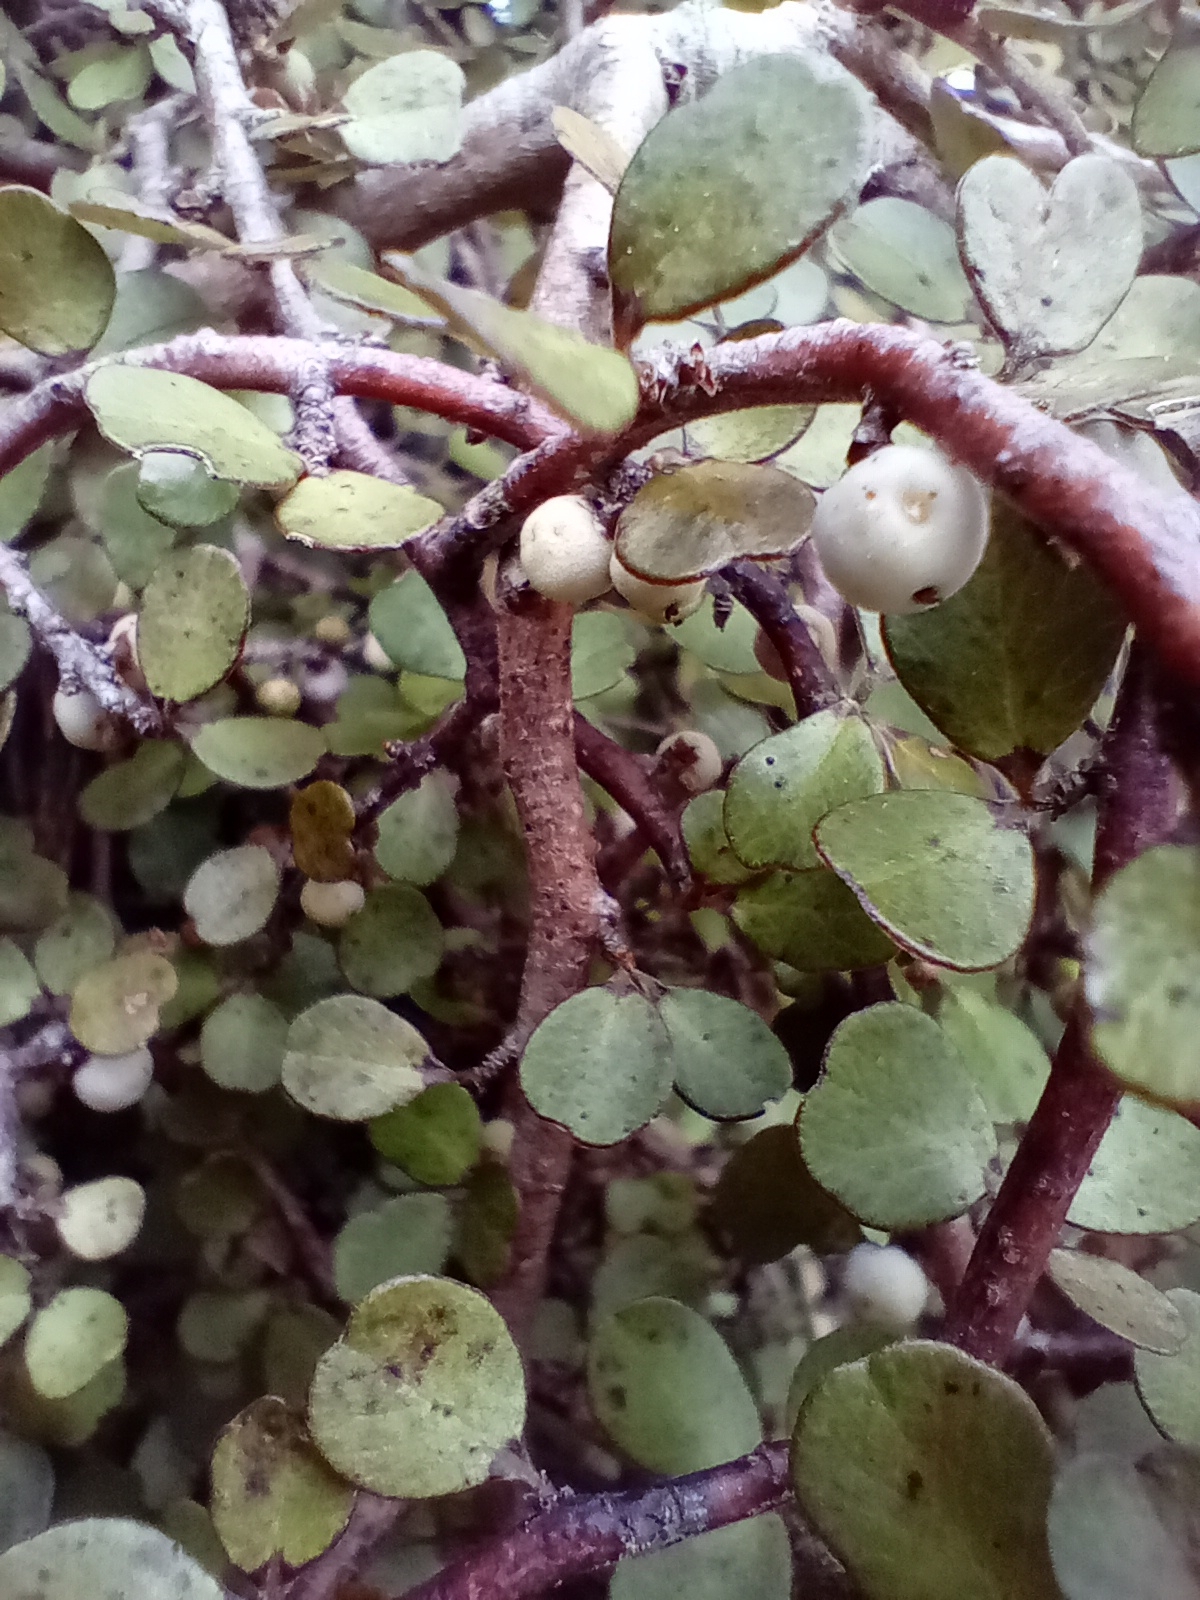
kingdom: Plantae
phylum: Tracheophyta
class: Magnoliopsida
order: Ericales
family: Primulaceae
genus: Myrsine
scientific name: Myrsine divaricata
